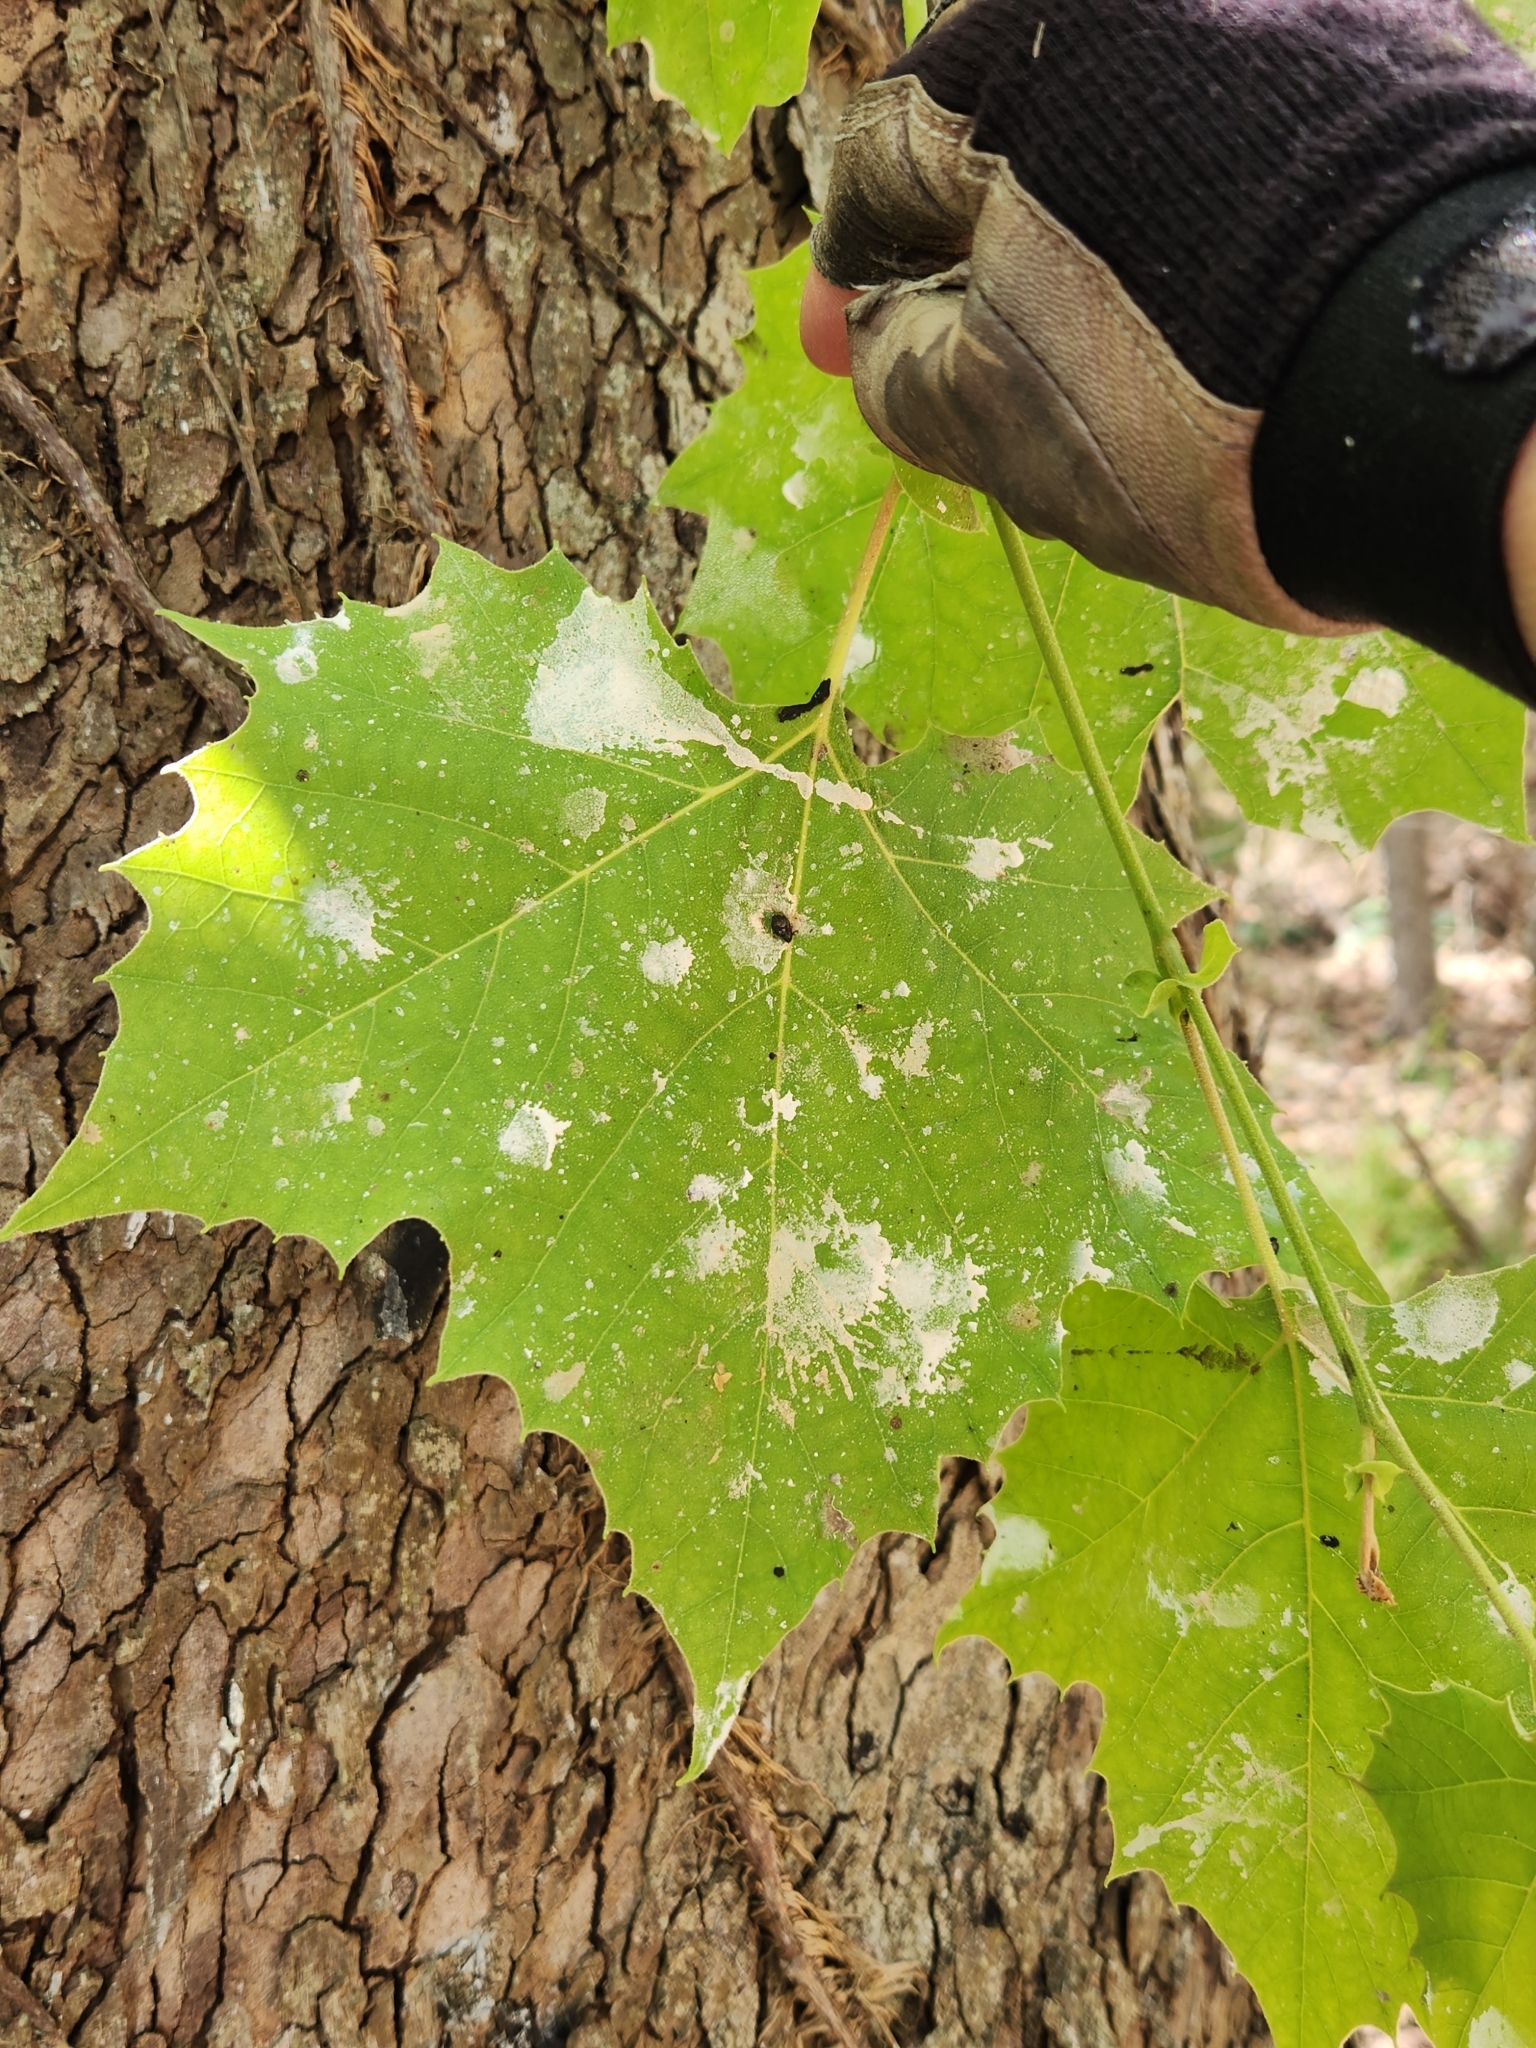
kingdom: Plantae
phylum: Tracheophyta
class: Magnoliopsida
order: Proteales
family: Platanaceae
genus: Platanus
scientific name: Platanus occidentalis
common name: American sycamore
